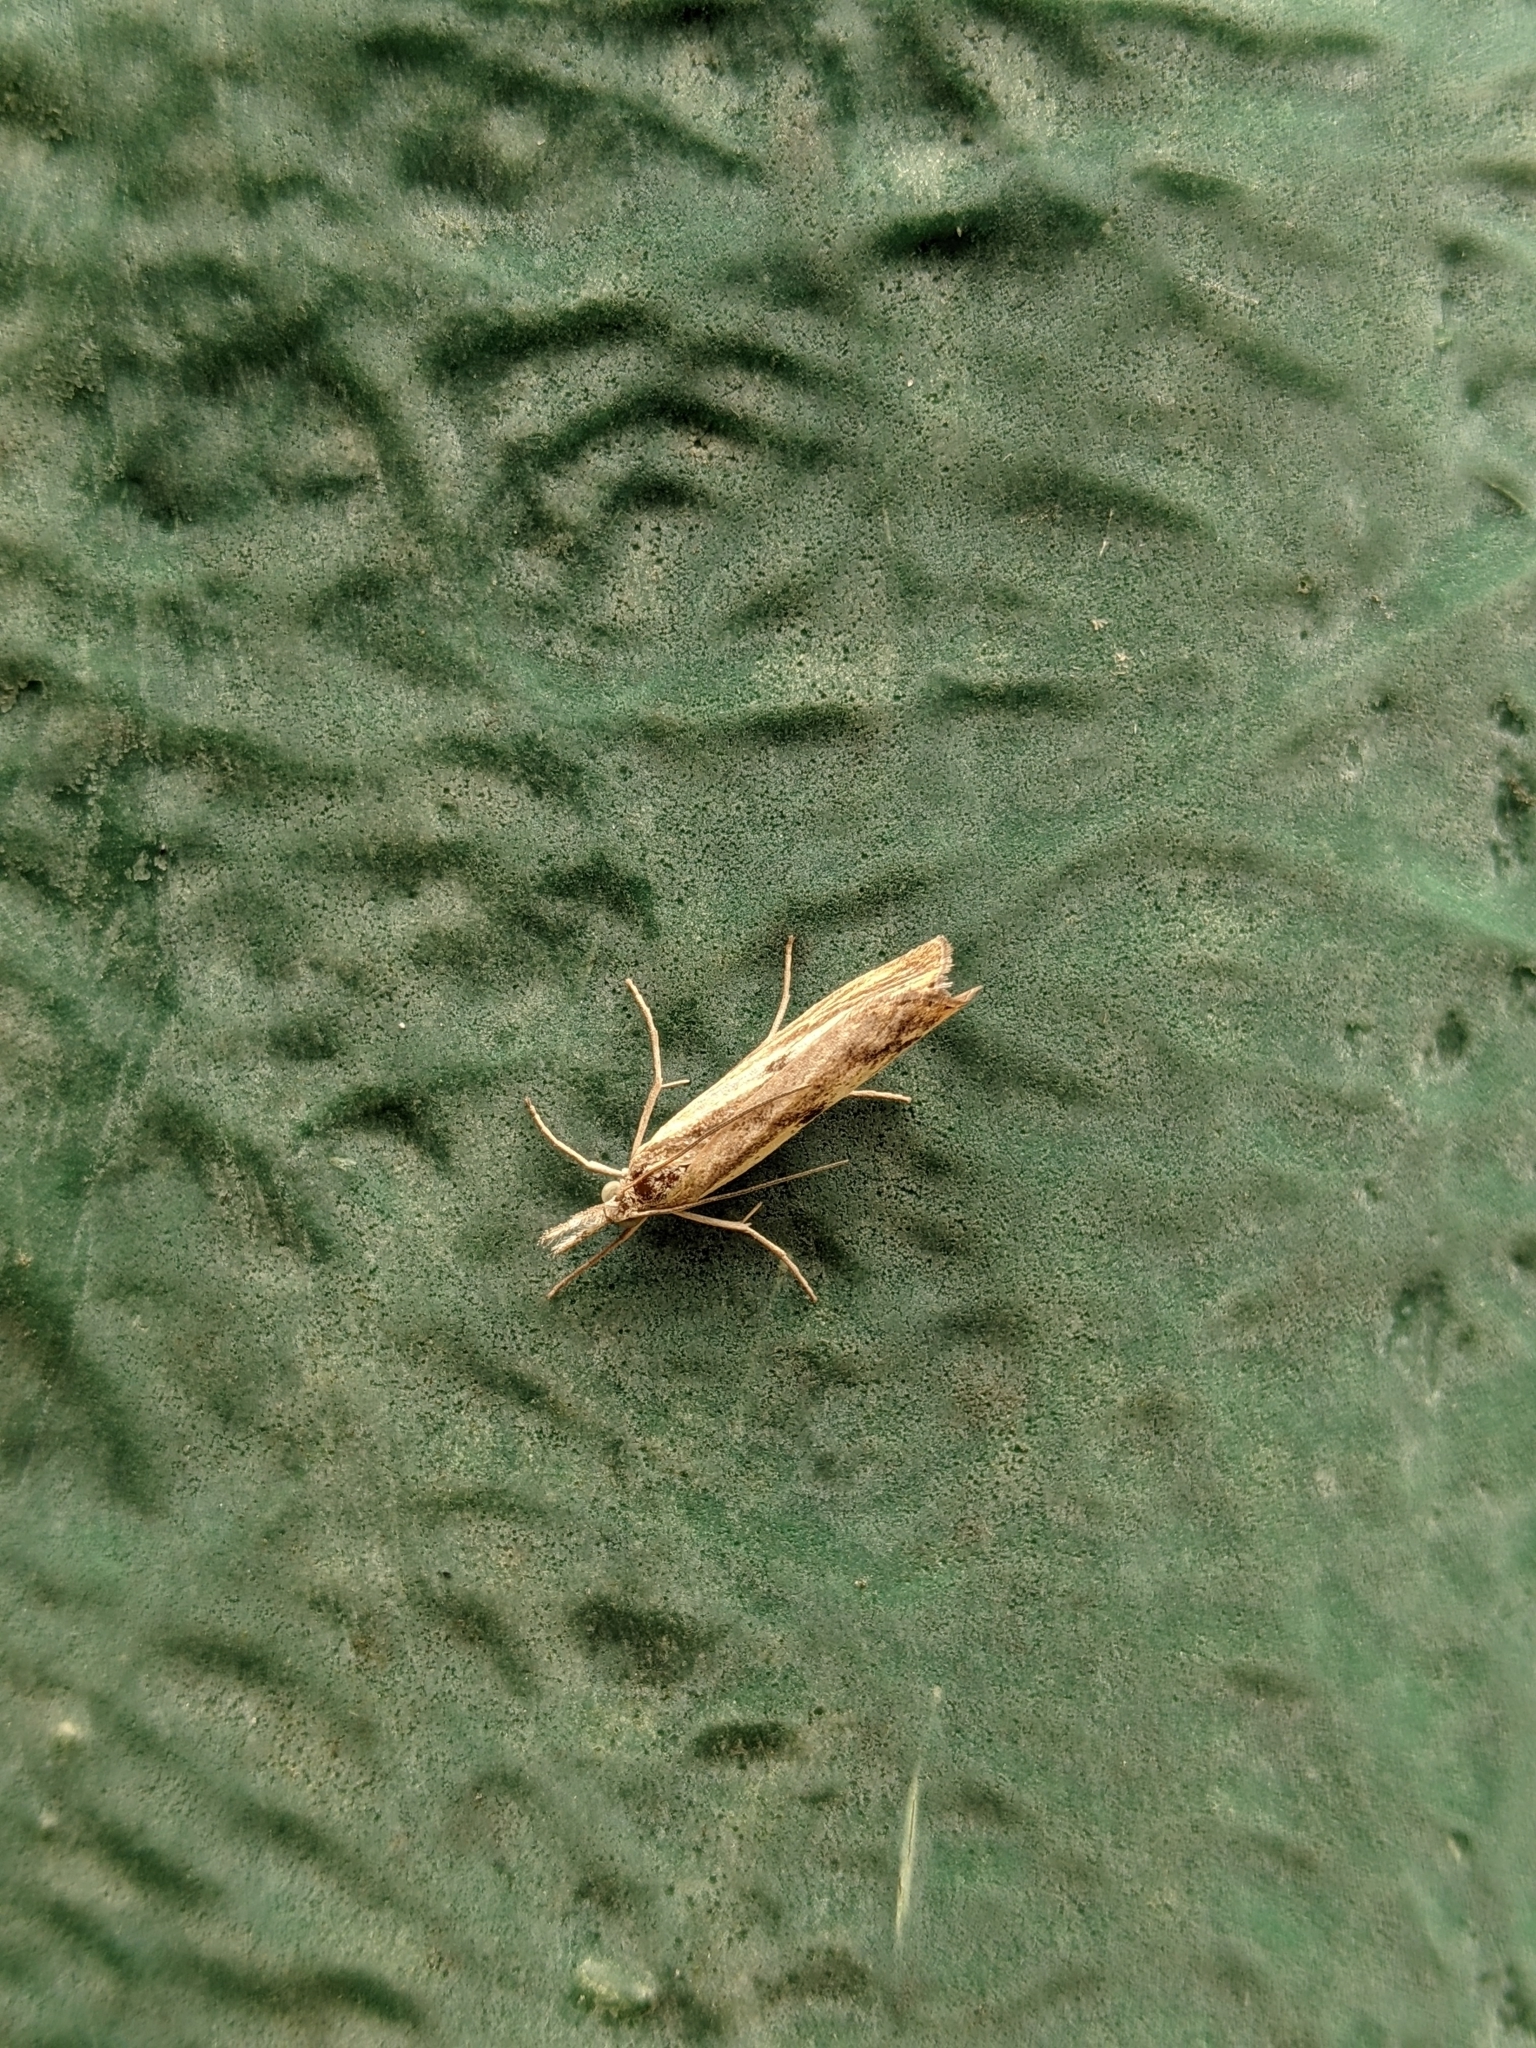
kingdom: Animalia
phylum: Arthropoda
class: Insecta
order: Lepidoptera
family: Crambidae
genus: Agriphila
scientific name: Agriphila inquinatella
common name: Barred grass-veneer
